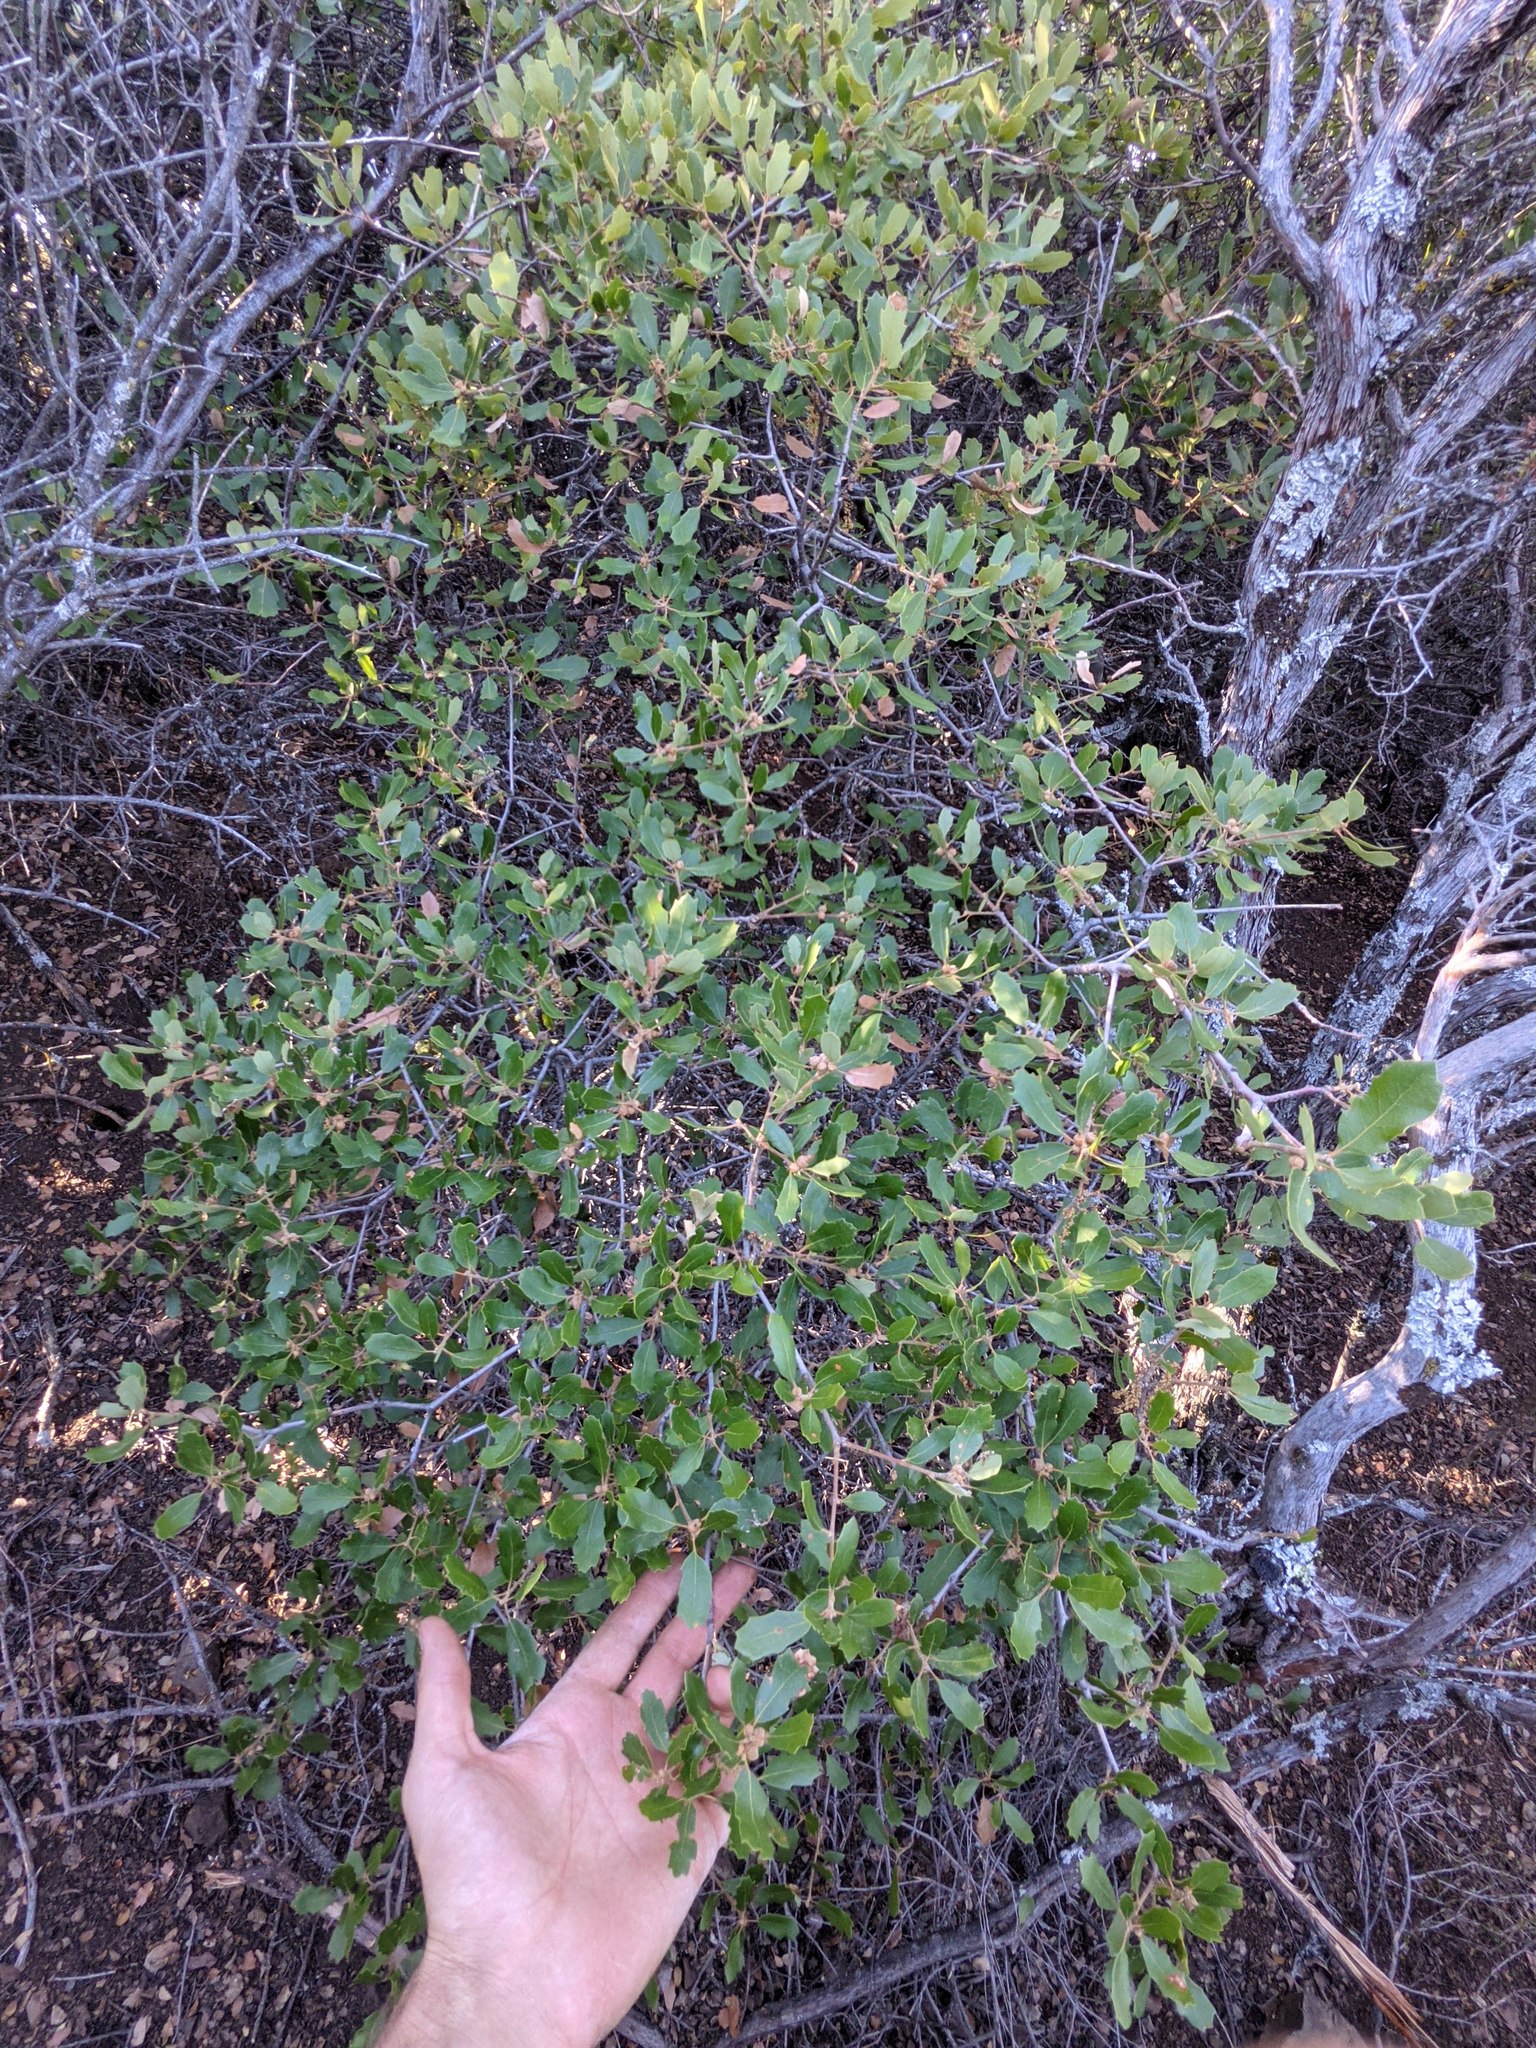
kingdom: Plantae
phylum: Tracheophyta
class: Magnoliopsida
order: Fagales
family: Fagaceae
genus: Quercus
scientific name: Quercus berberidifolia
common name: California scrub oak
